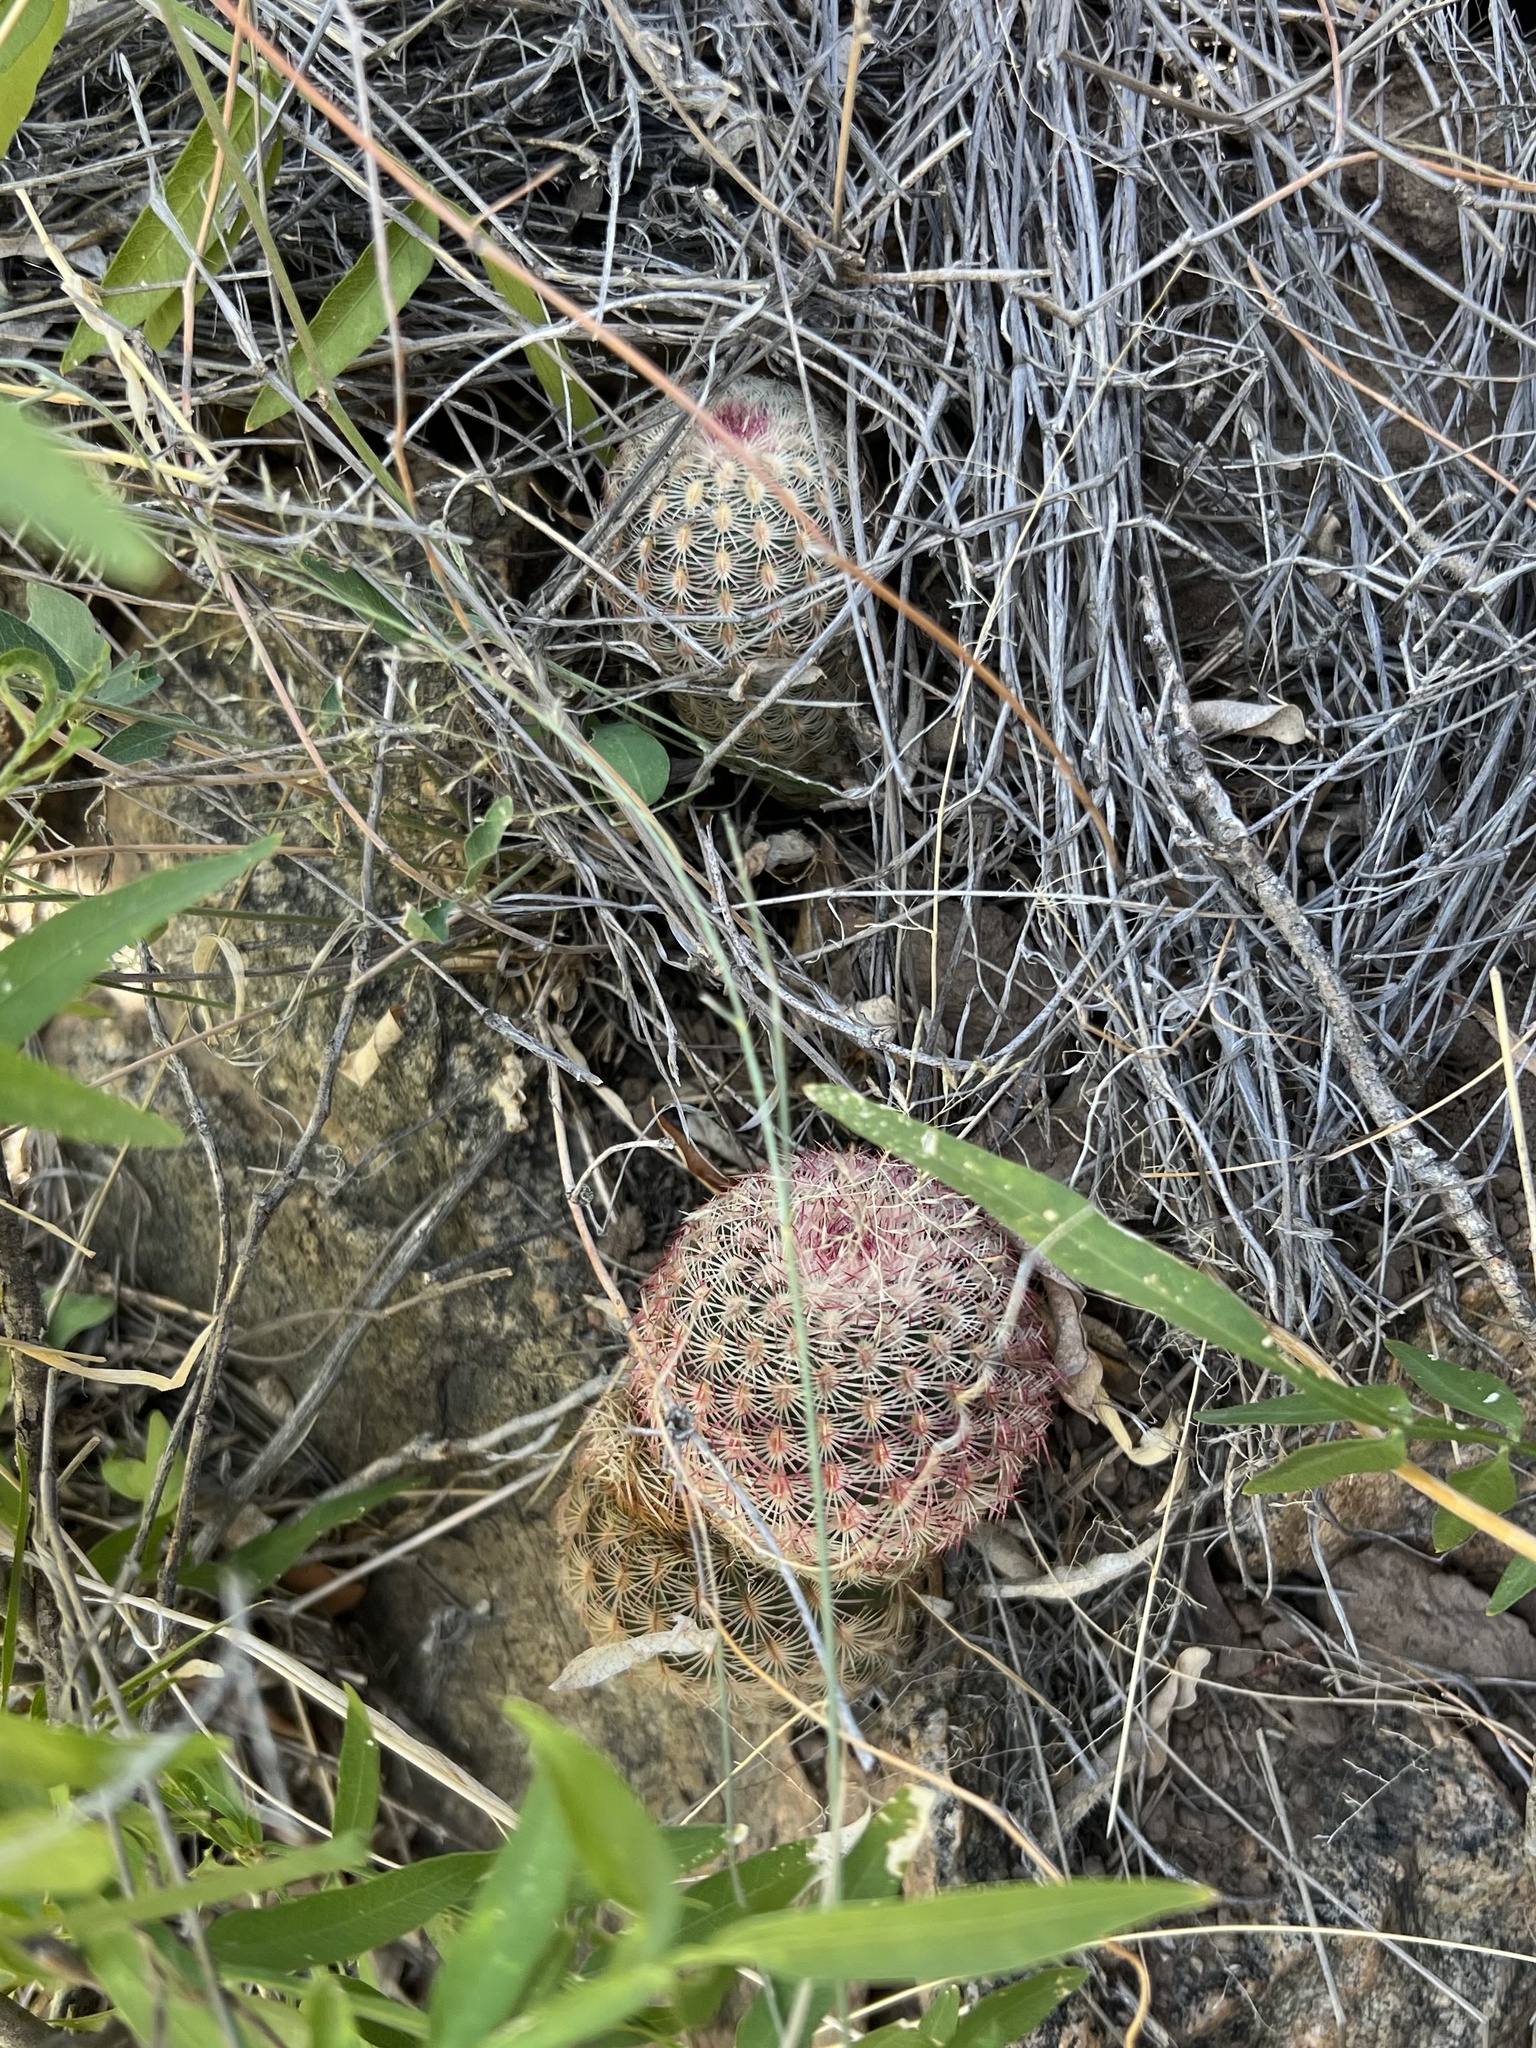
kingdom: Plantae
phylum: Tracheophyta
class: Magnoliopsida
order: Caryophyllales
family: Cactaceae
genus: Echinocereus
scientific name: Echinocereus rigidissimus
